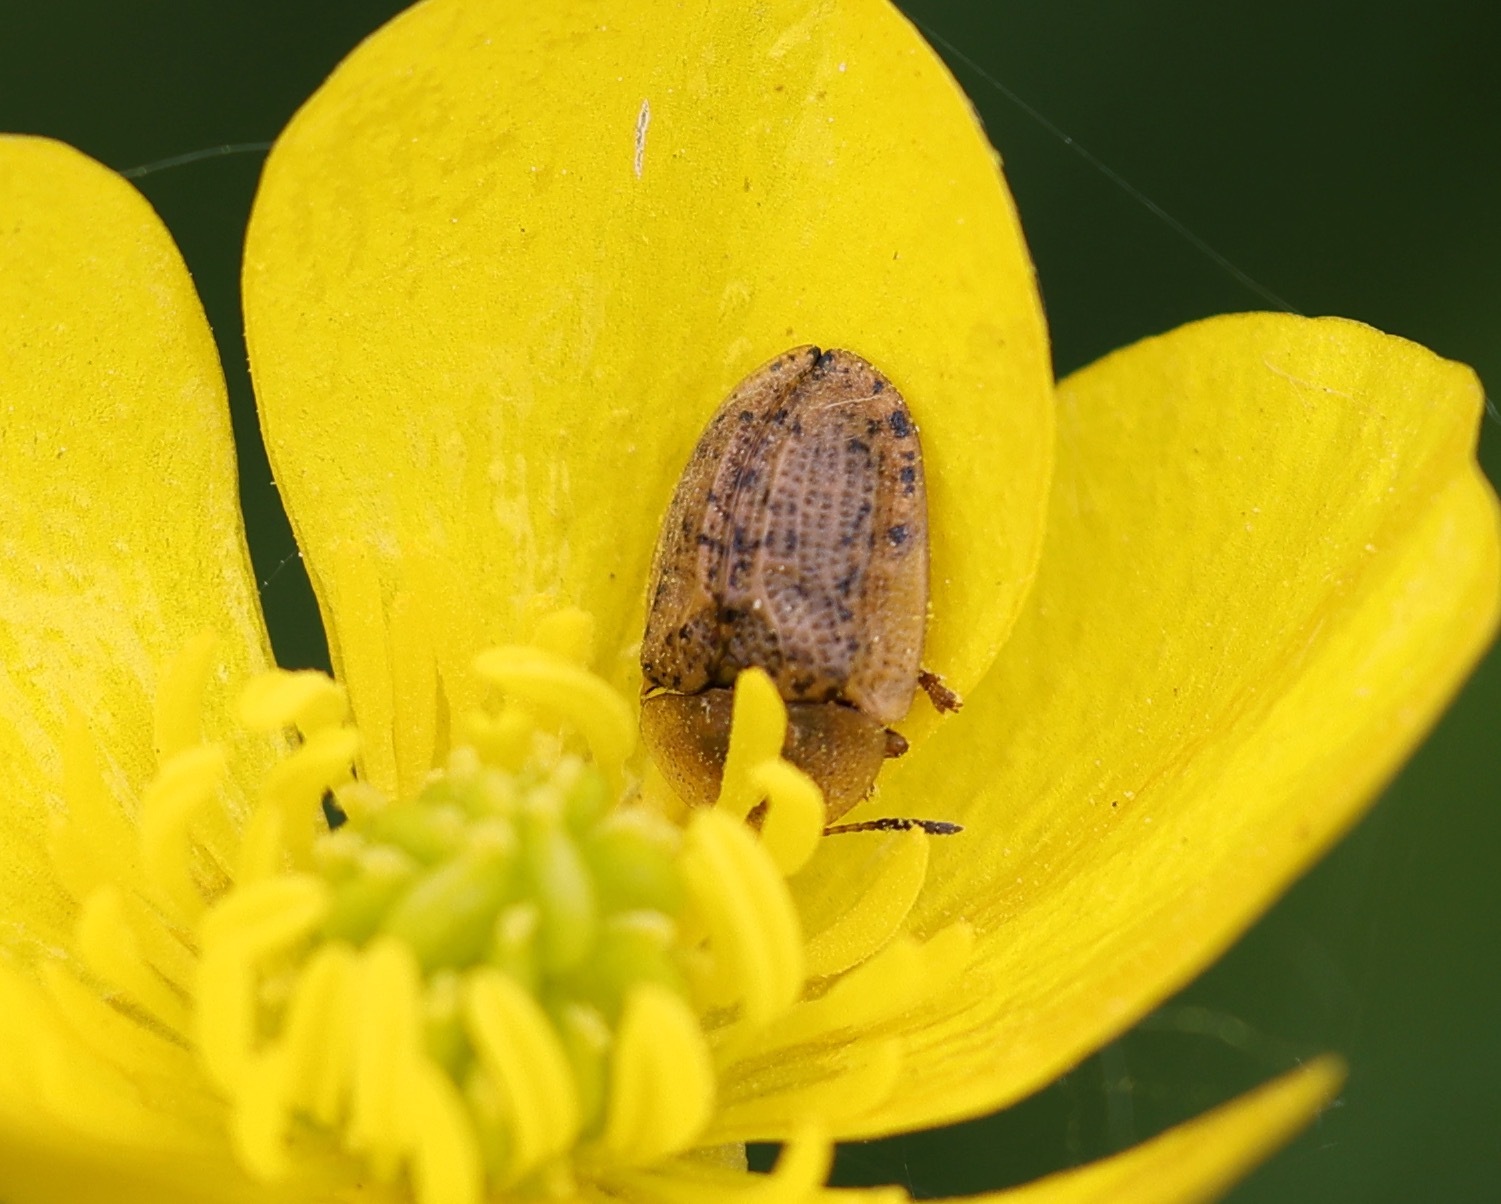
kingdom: Animalia
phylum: Arthropoda
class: Insecta
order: Coleoptera
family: Chrysomelidae
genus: Cassida
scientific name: Cassida nebulosa
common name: Beet tortoise beetle
